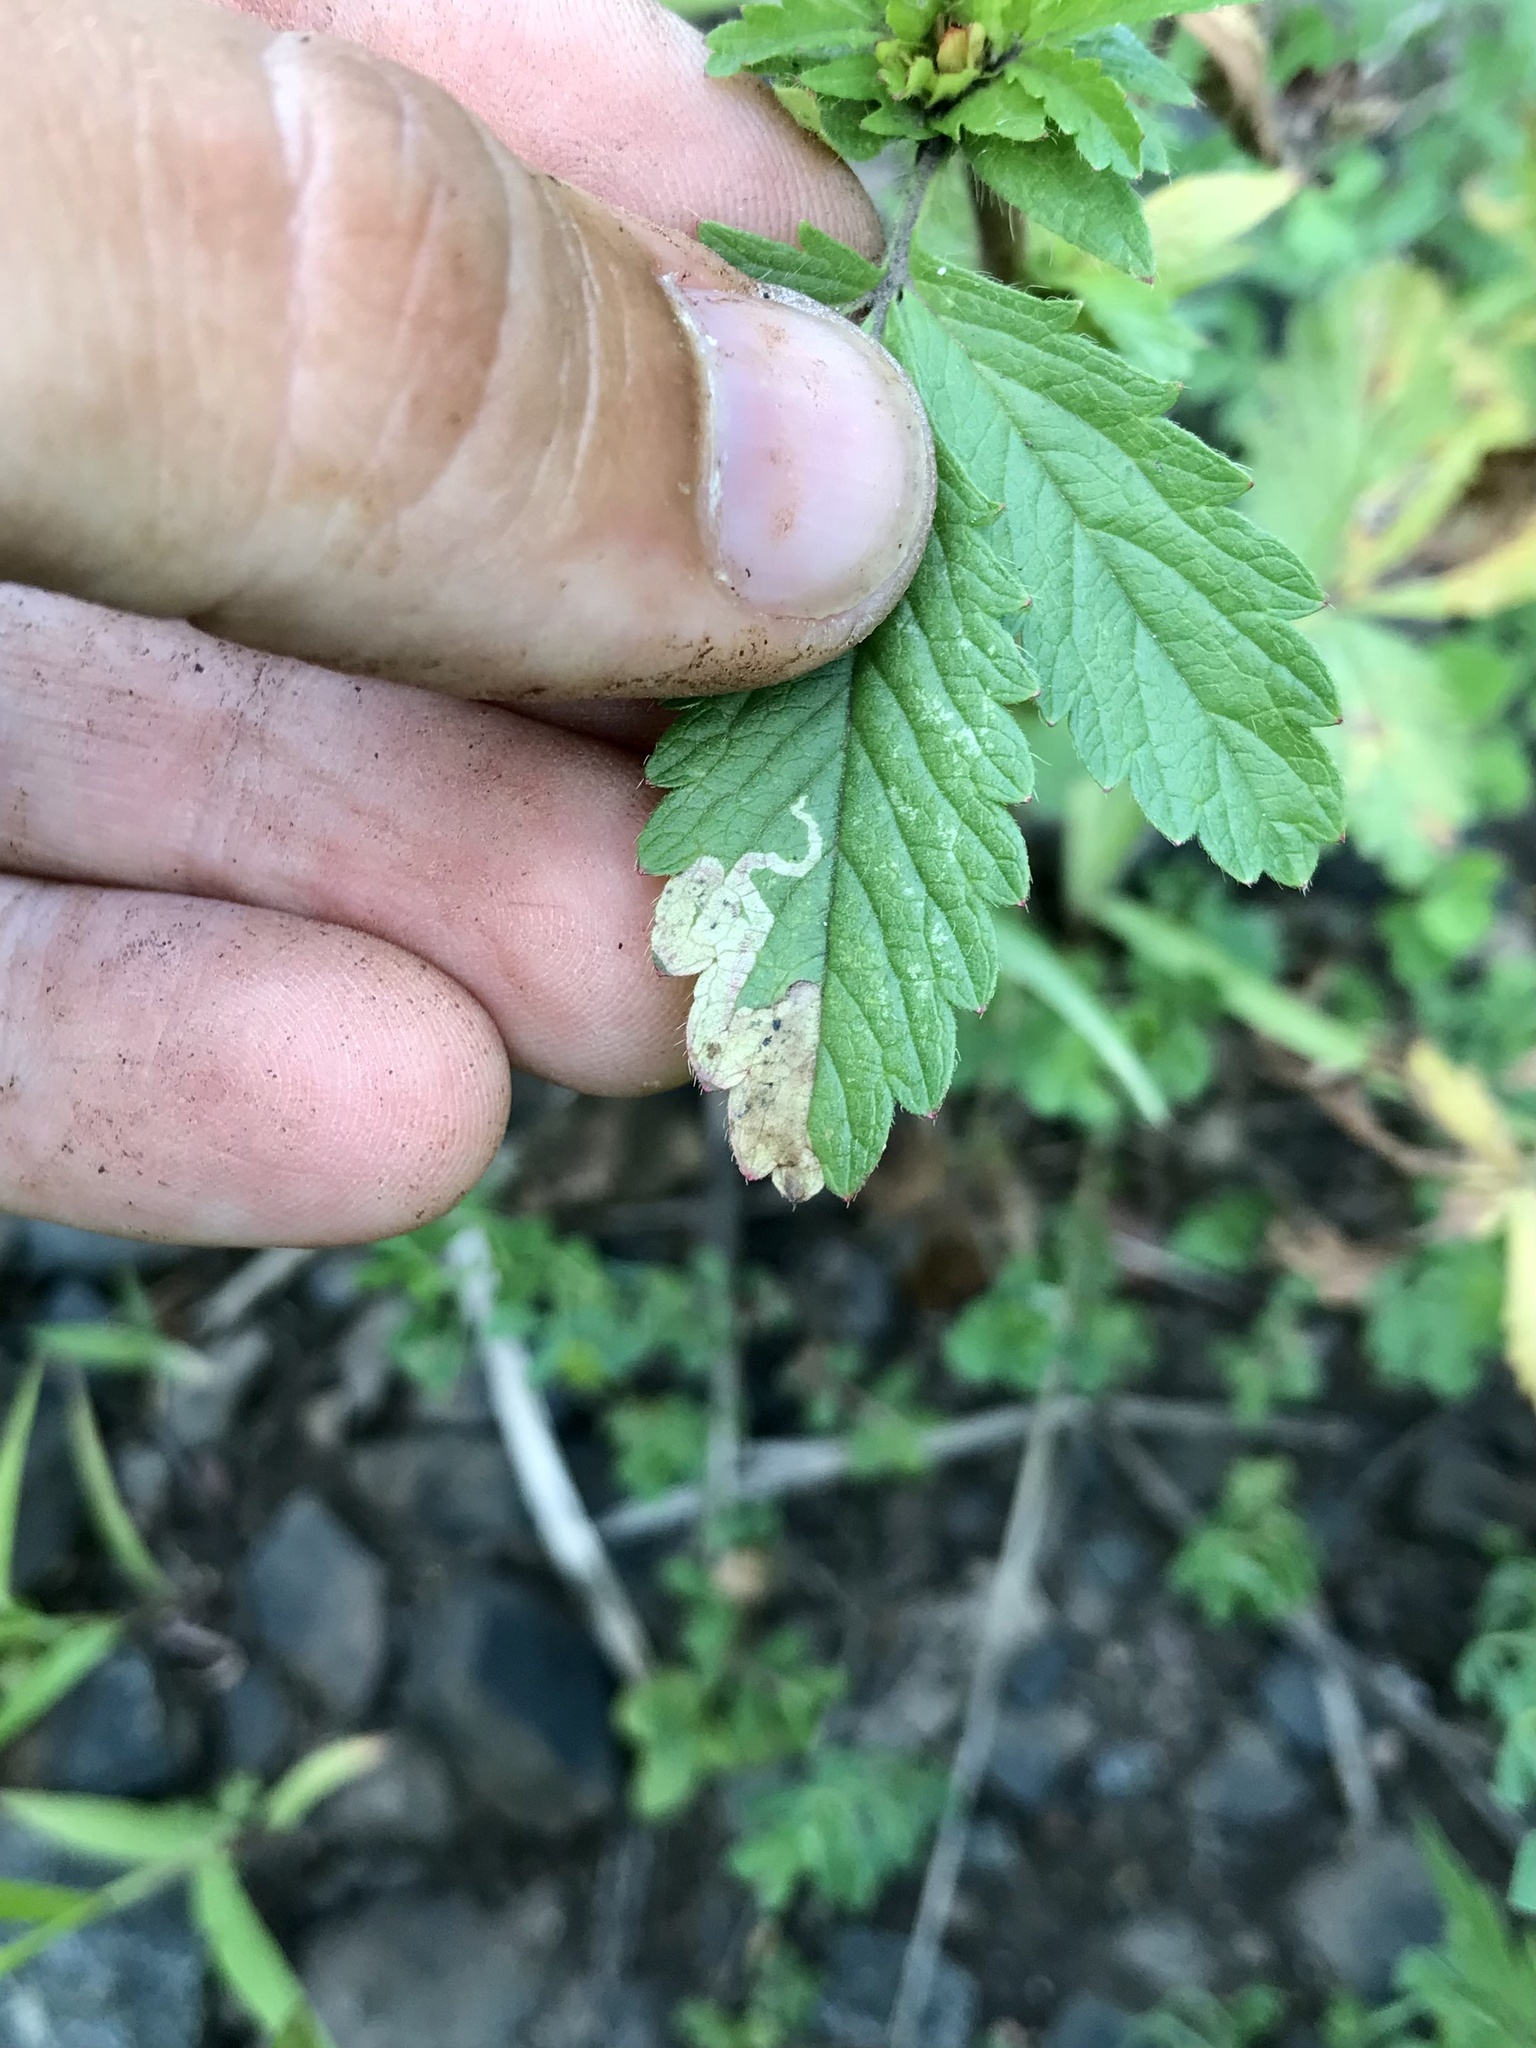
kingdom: Animalia
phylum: Arthropoda
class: Insecta
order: Diptera
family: Agromyzidae
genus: Agromyza
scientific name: Agromyza idaeiana
